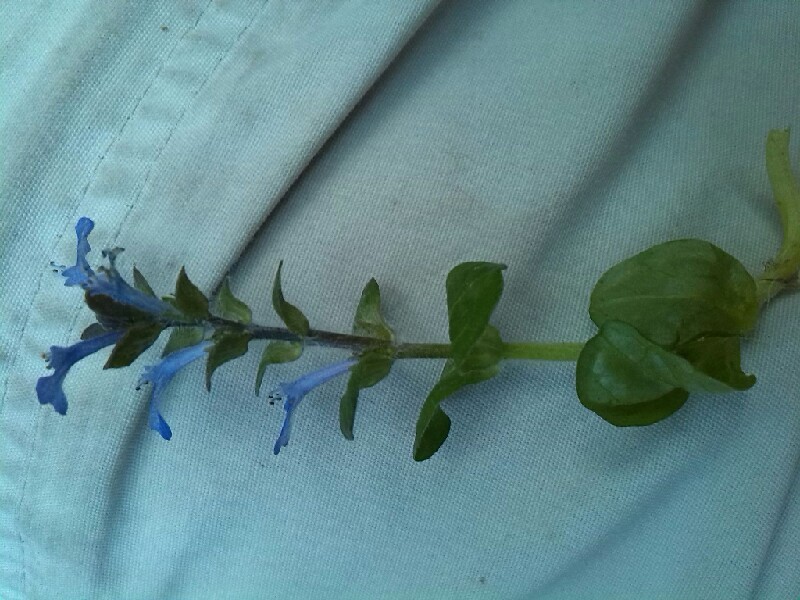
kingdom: Plantae
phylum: Tracheophyta
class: Magnoliopsida
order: Lamiales
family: Lamiaceae
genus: Ajuga
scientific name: Ajuga reptans
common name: Bugle
